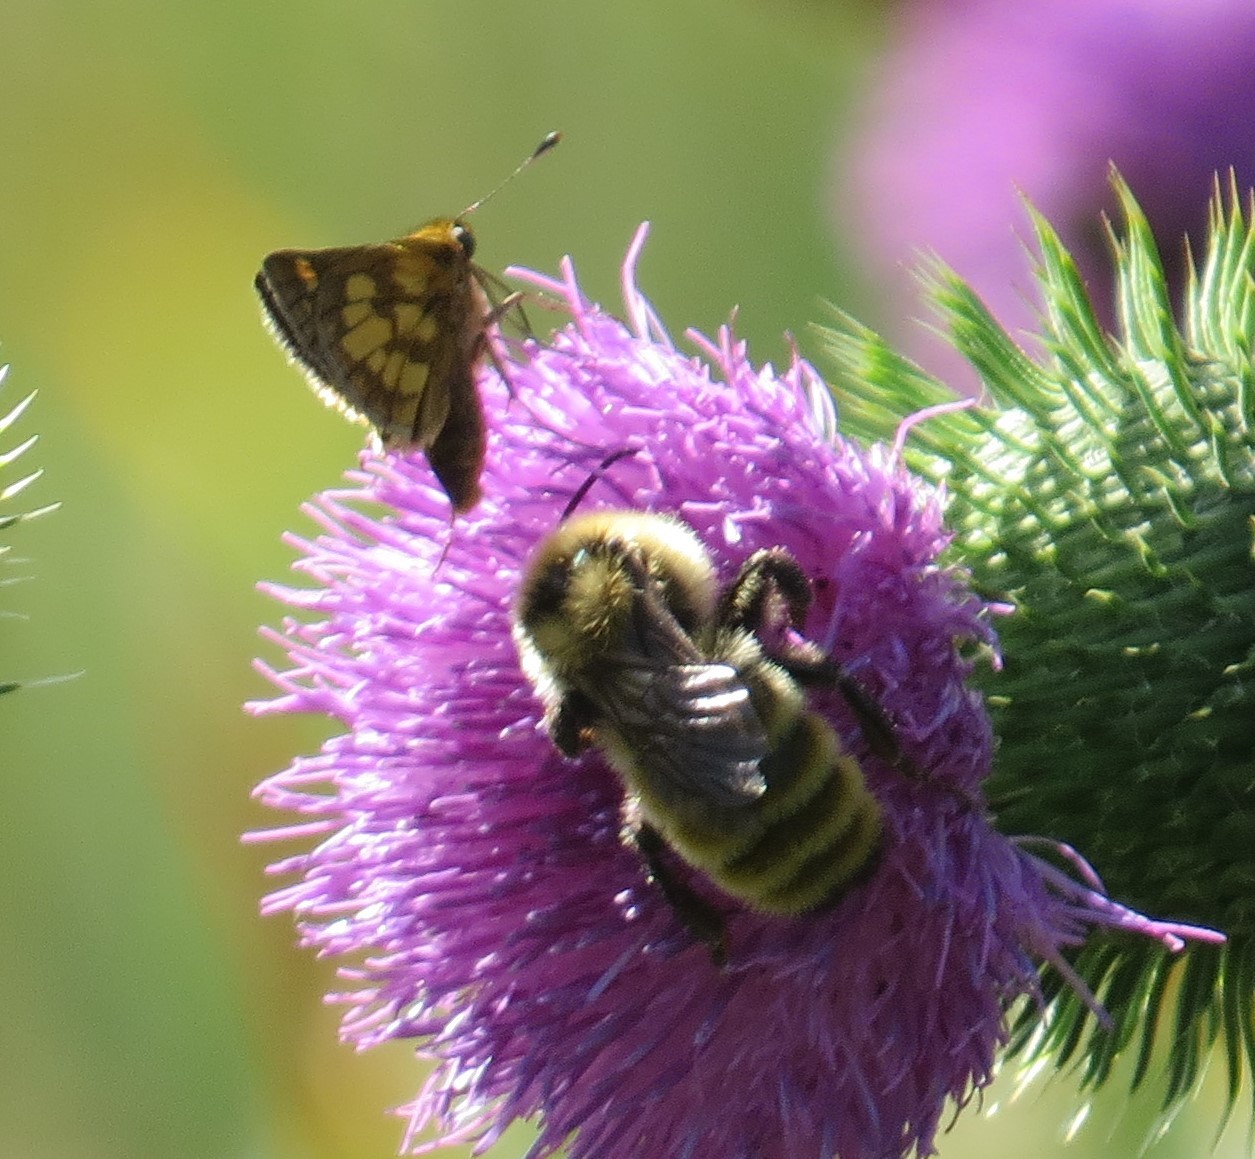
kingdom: Animalia
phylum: Arthropoda
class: Insecta
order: Lepidoptera
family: Hesperiidae
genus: Polites
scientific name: Polites coras
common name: Peck's skipper
